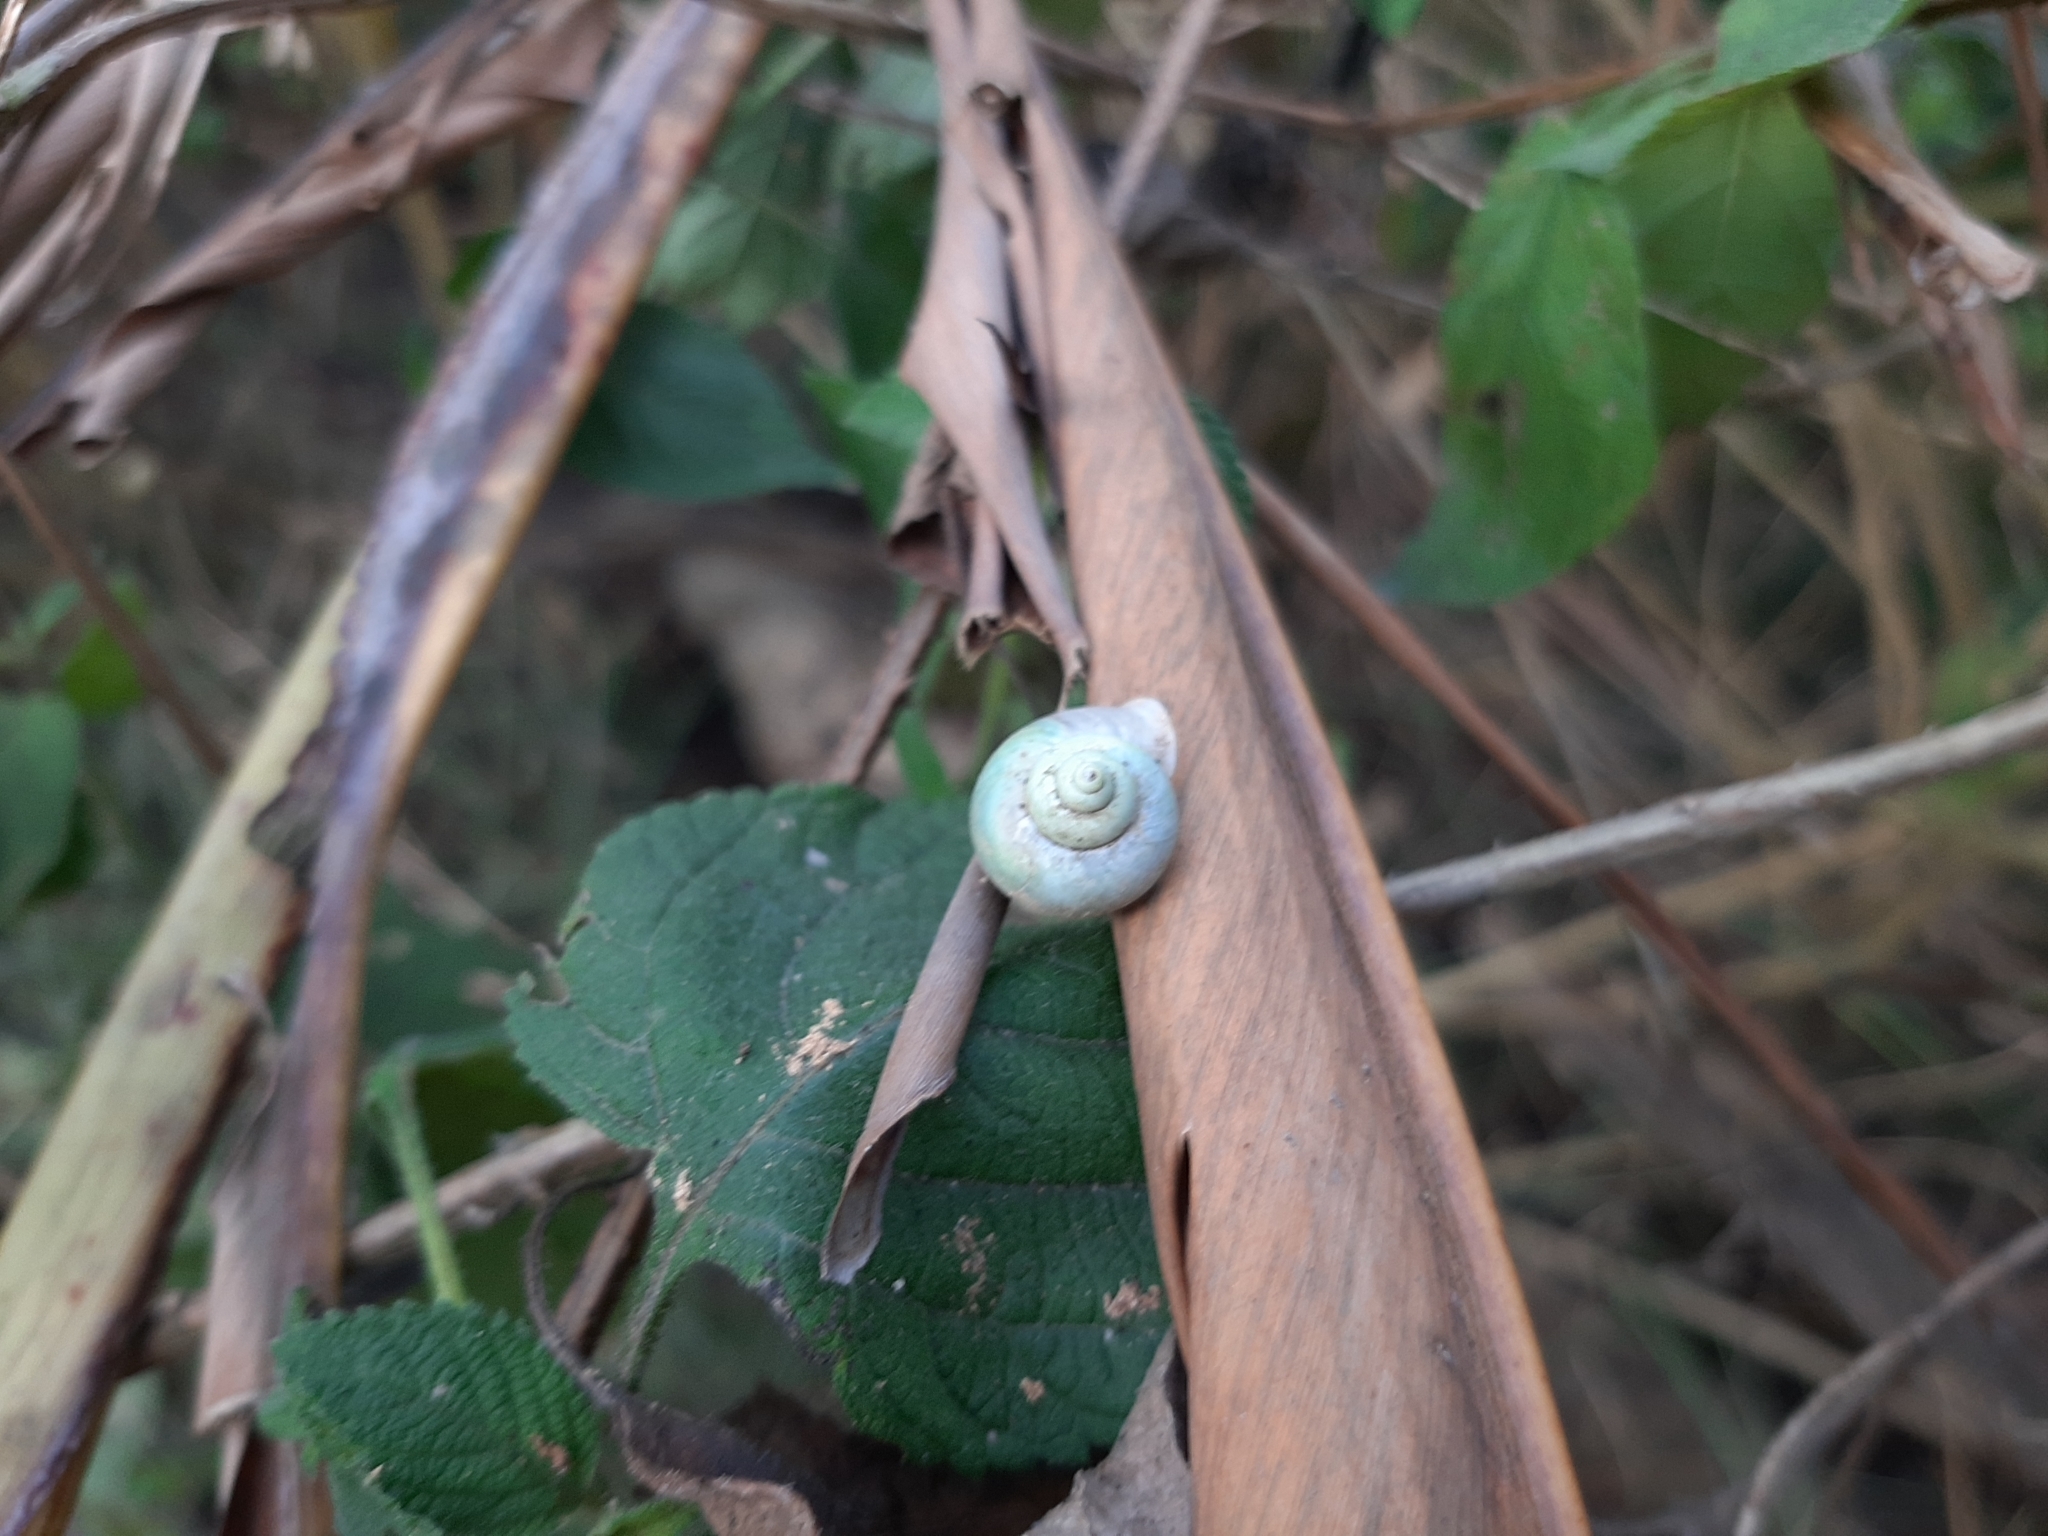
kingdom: Animalia
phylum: Mollusca
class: Gastropoda
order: Architaenioglossa
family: Cyclophoridae
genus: Leptopoma
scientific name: Leptopoma nitidum
